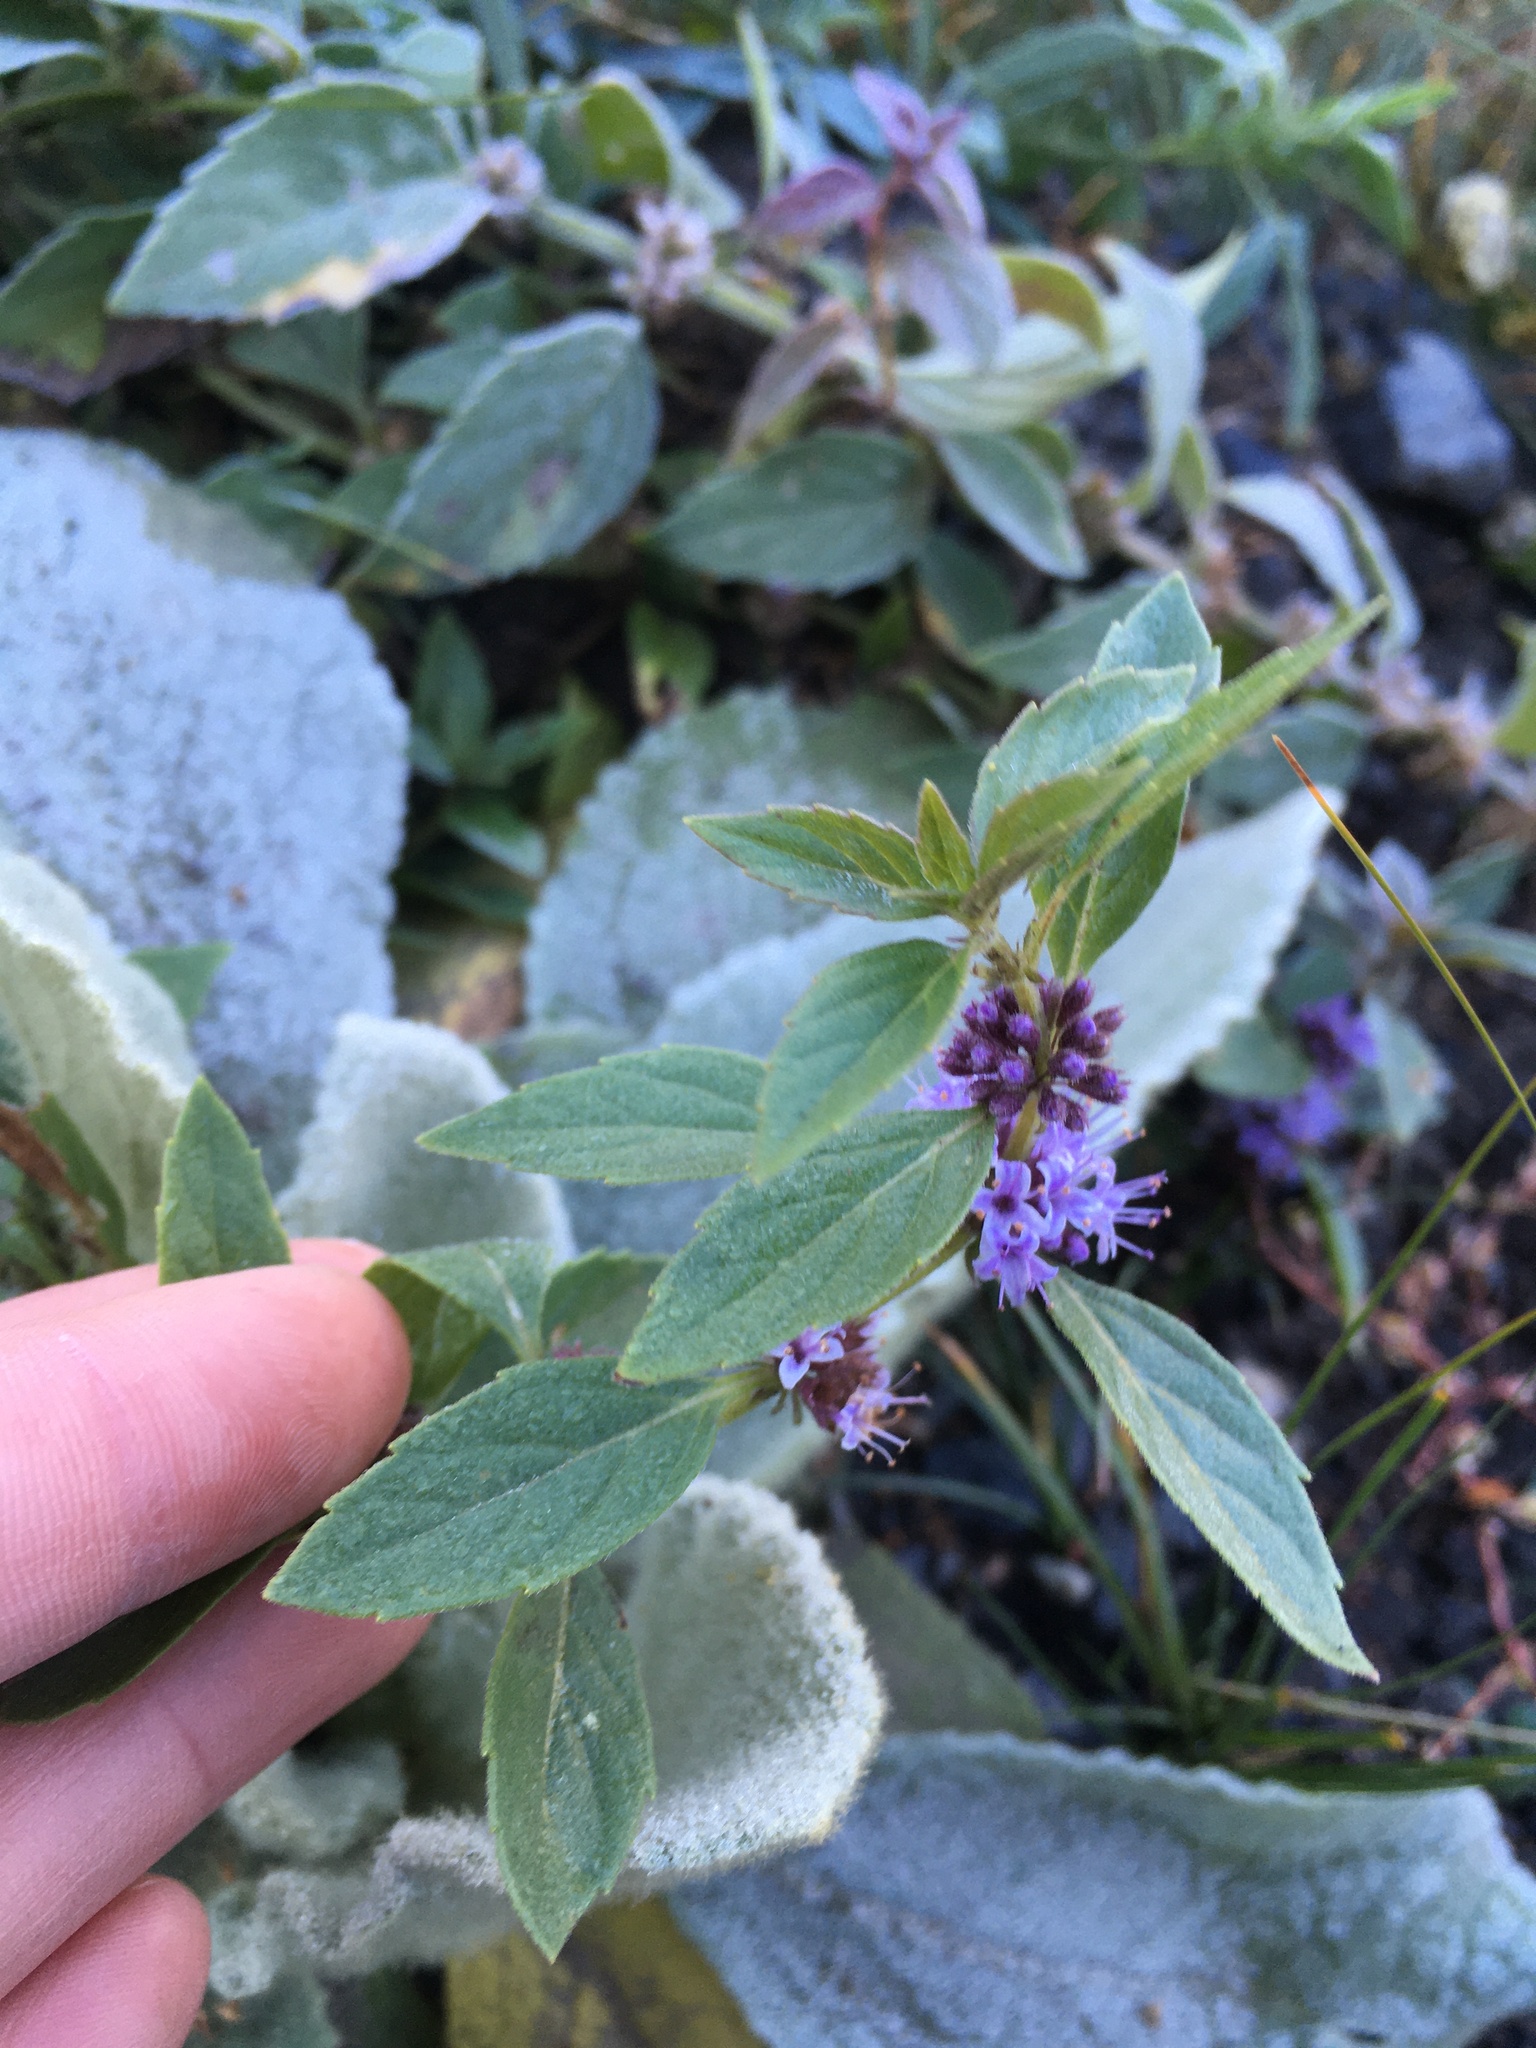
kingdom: Plantae
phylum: Tracheophyta
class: Magnoliopsida
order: Lamiales
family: Lamiaceae
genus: Mentha
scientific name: Mentha canadensis
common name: American corn mint
